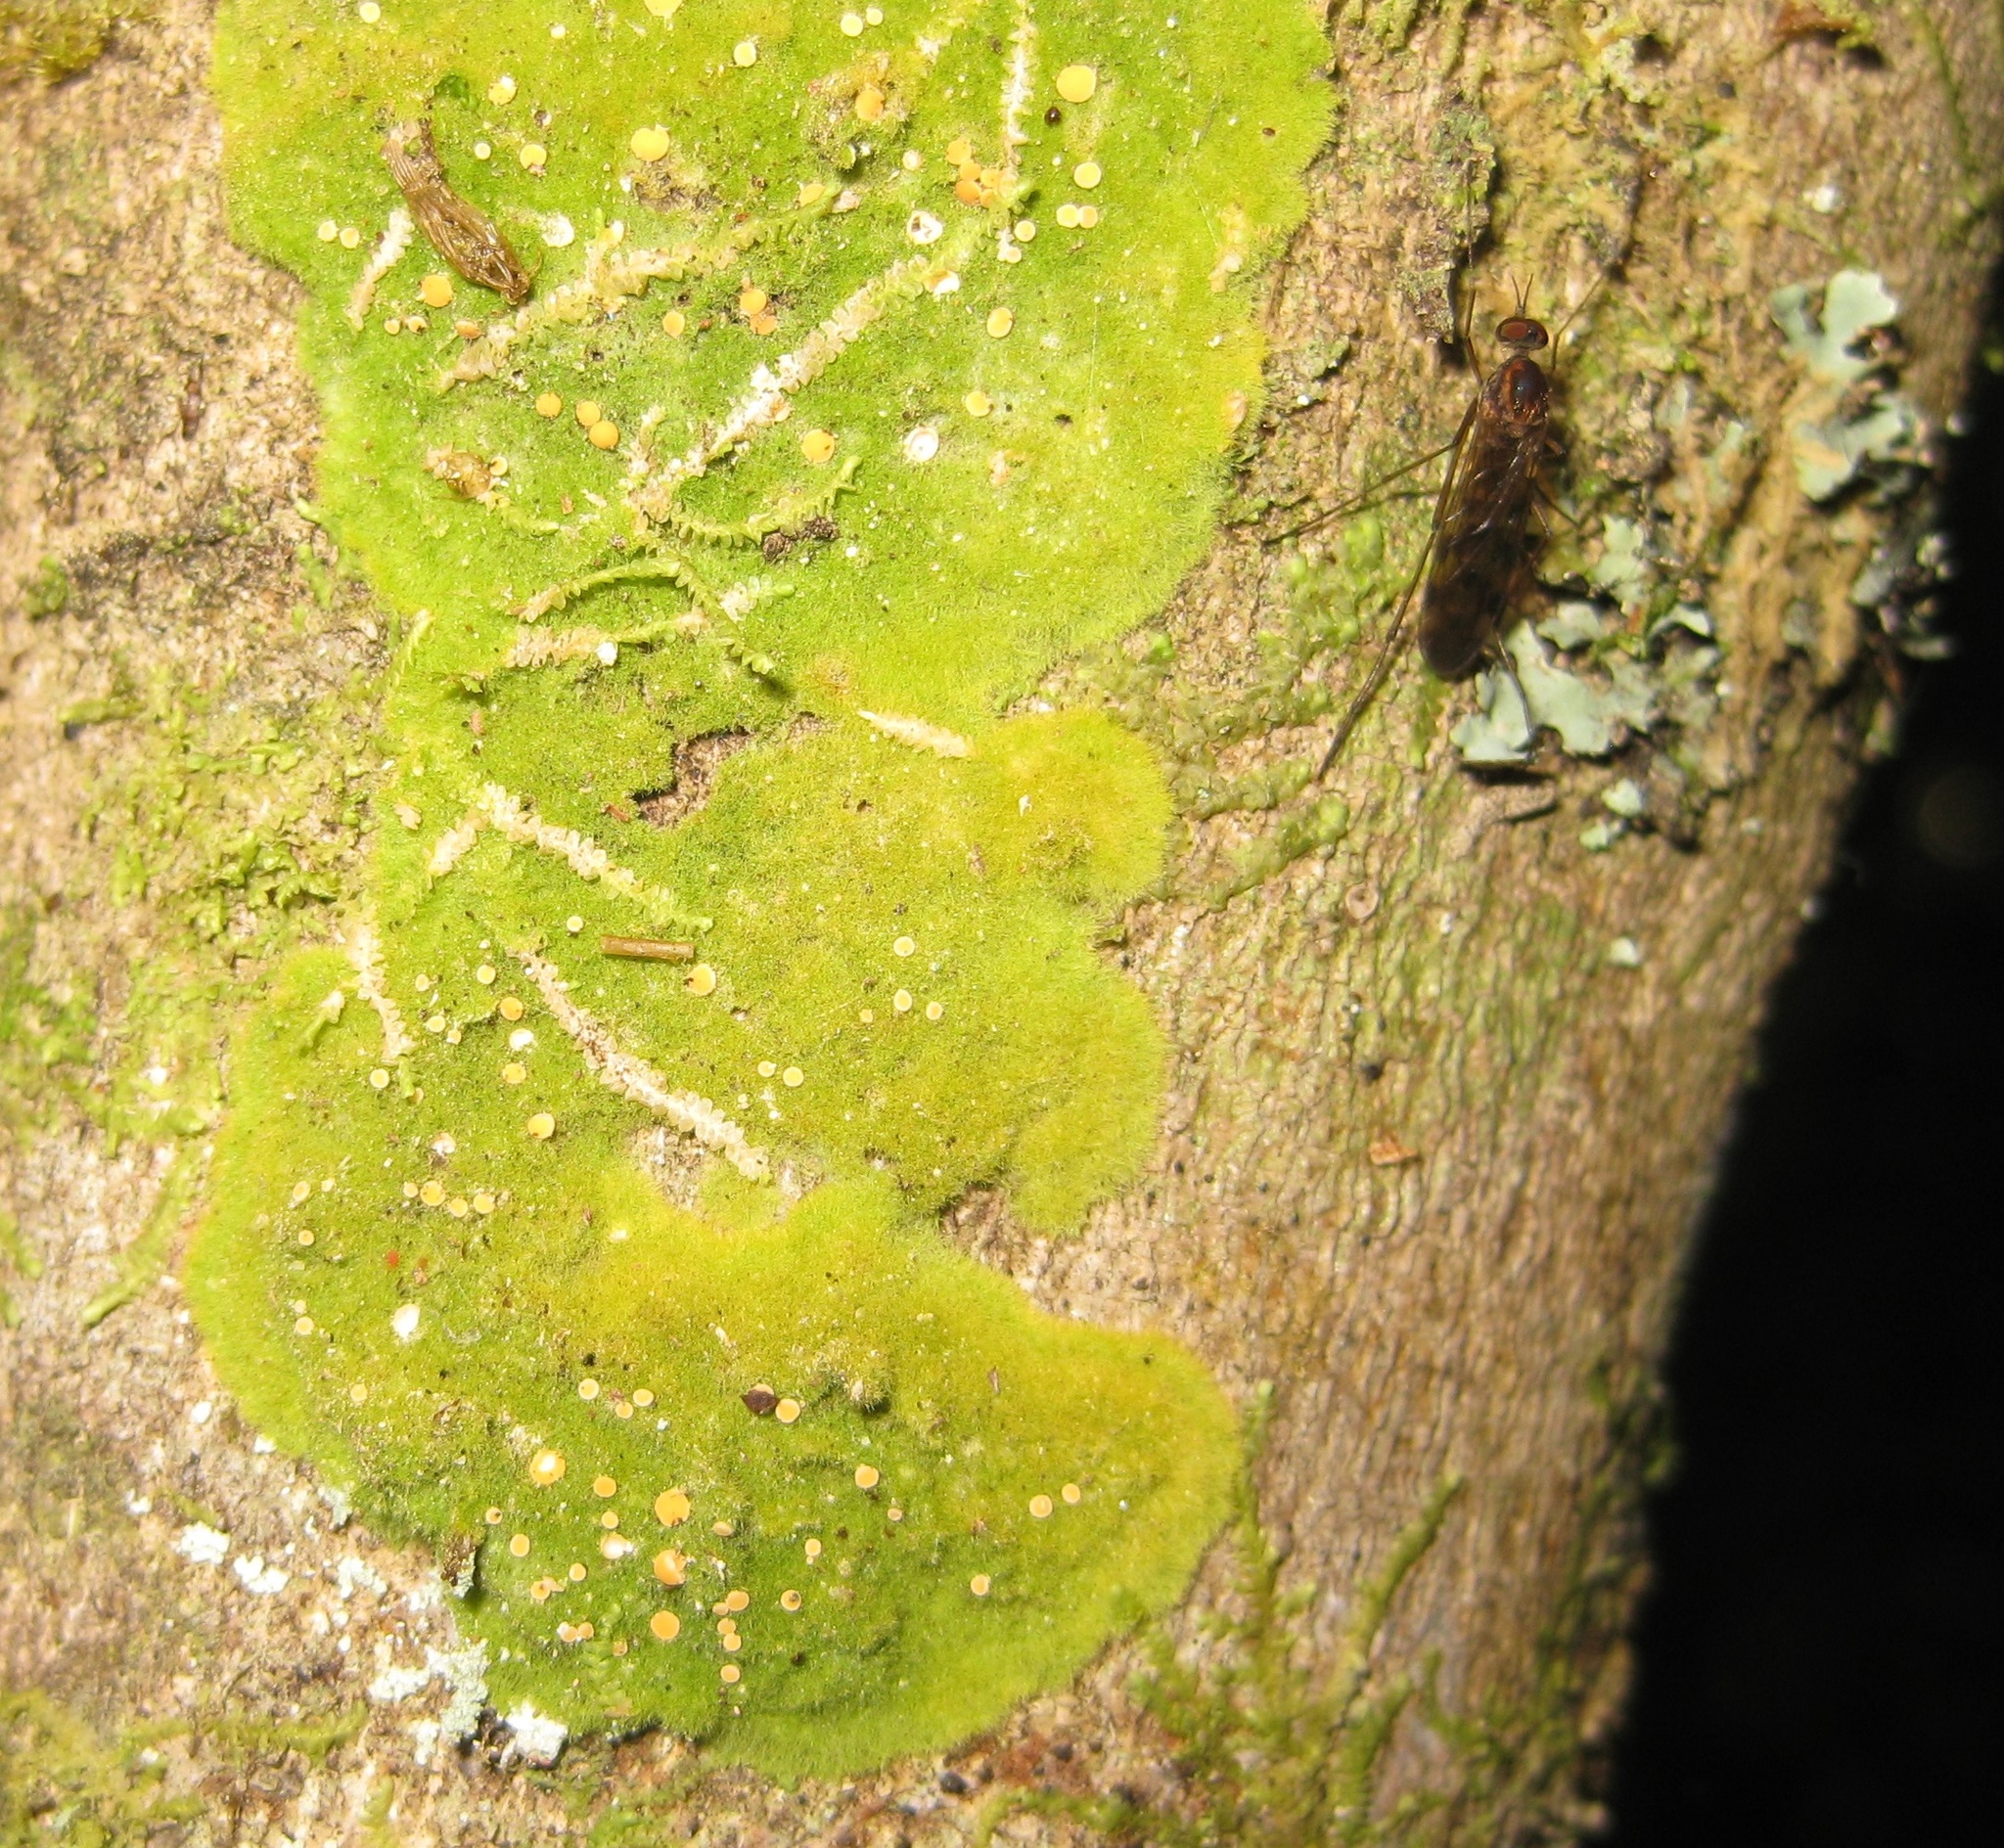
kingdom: Fungi
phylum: Ascomycota
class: Lecanoromycetes
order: Ostropales
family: Coenogoniaceae
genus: Coenogonium
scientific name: Coenogonium implexum
